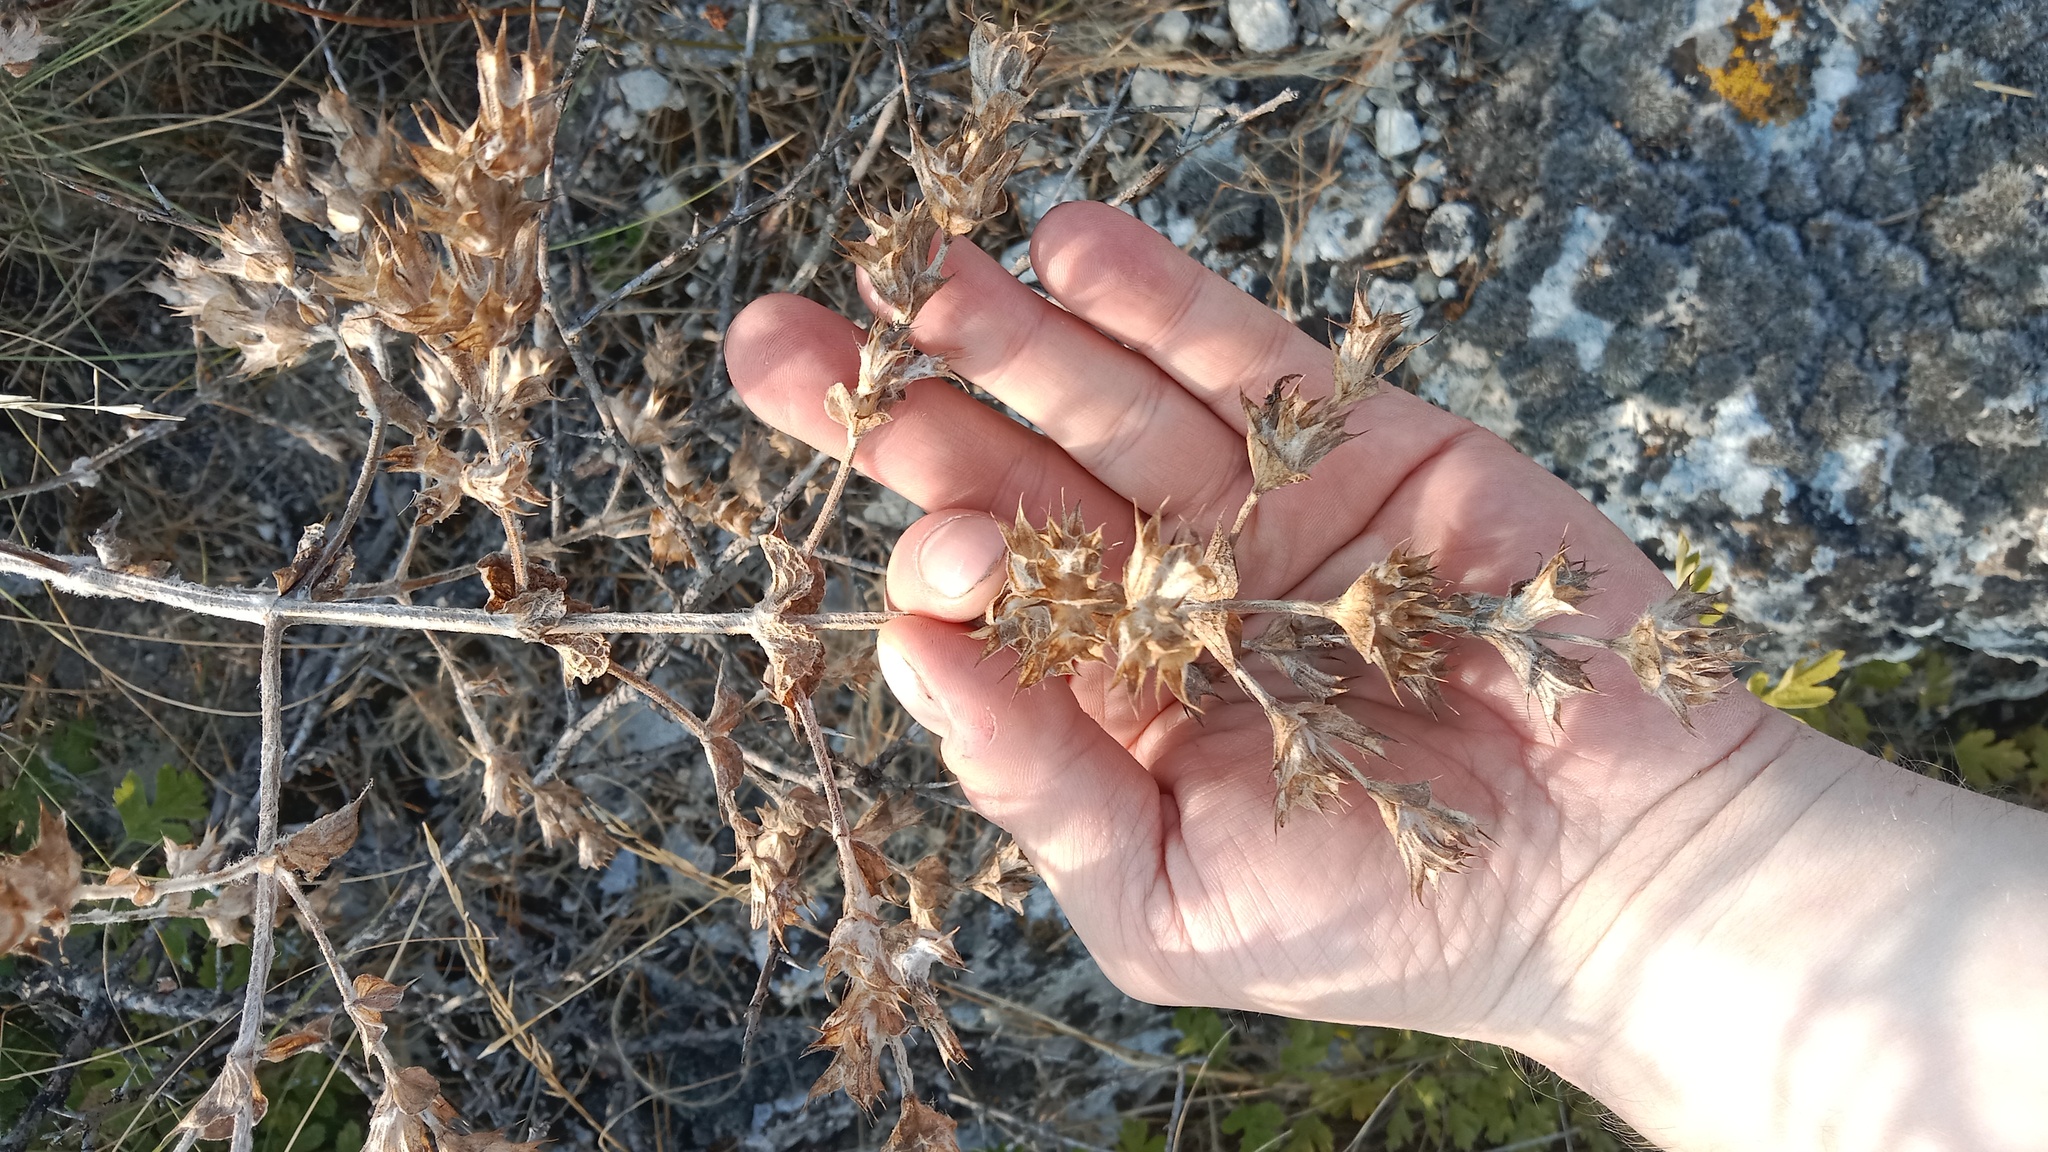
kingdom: Plantae
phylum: Tracheophyta
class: Magnoliopsida
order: Lamiales
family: Lamiaceae
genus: Salvia
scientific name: Salvia aethiopis
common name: Mediterranean sage
